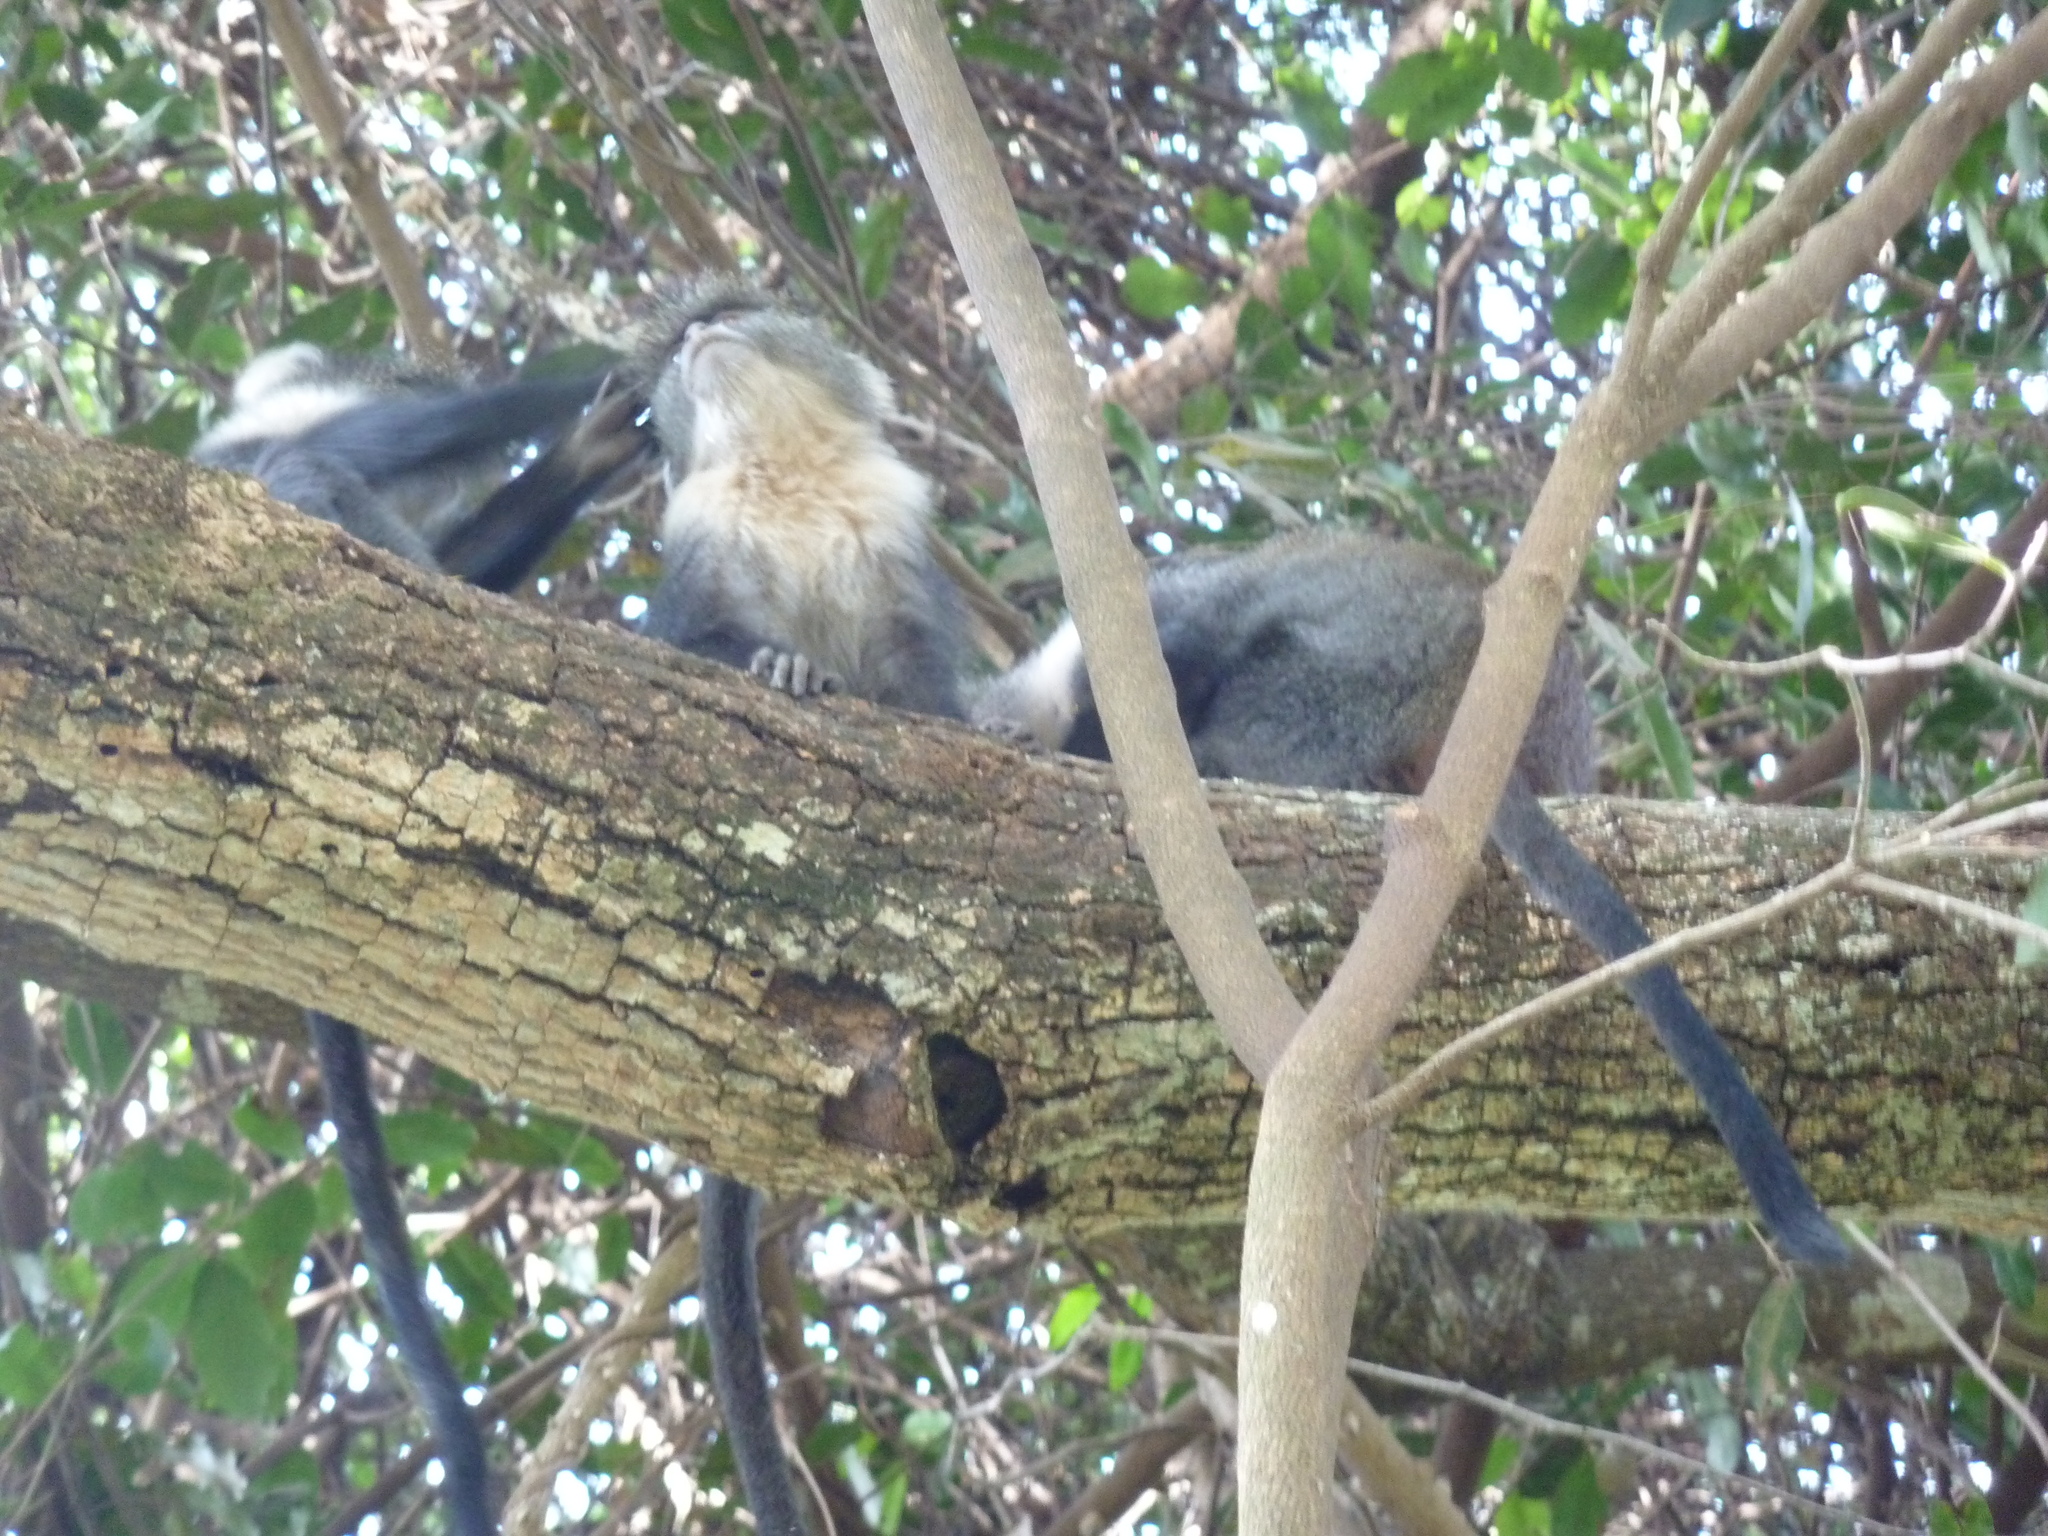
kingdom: Animalia
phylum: Chordata
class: Mammalia
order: Primates
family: Cercopithecidae
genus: Cercopithecus
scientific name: Cercopithecus mitis
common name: Blue monkey
